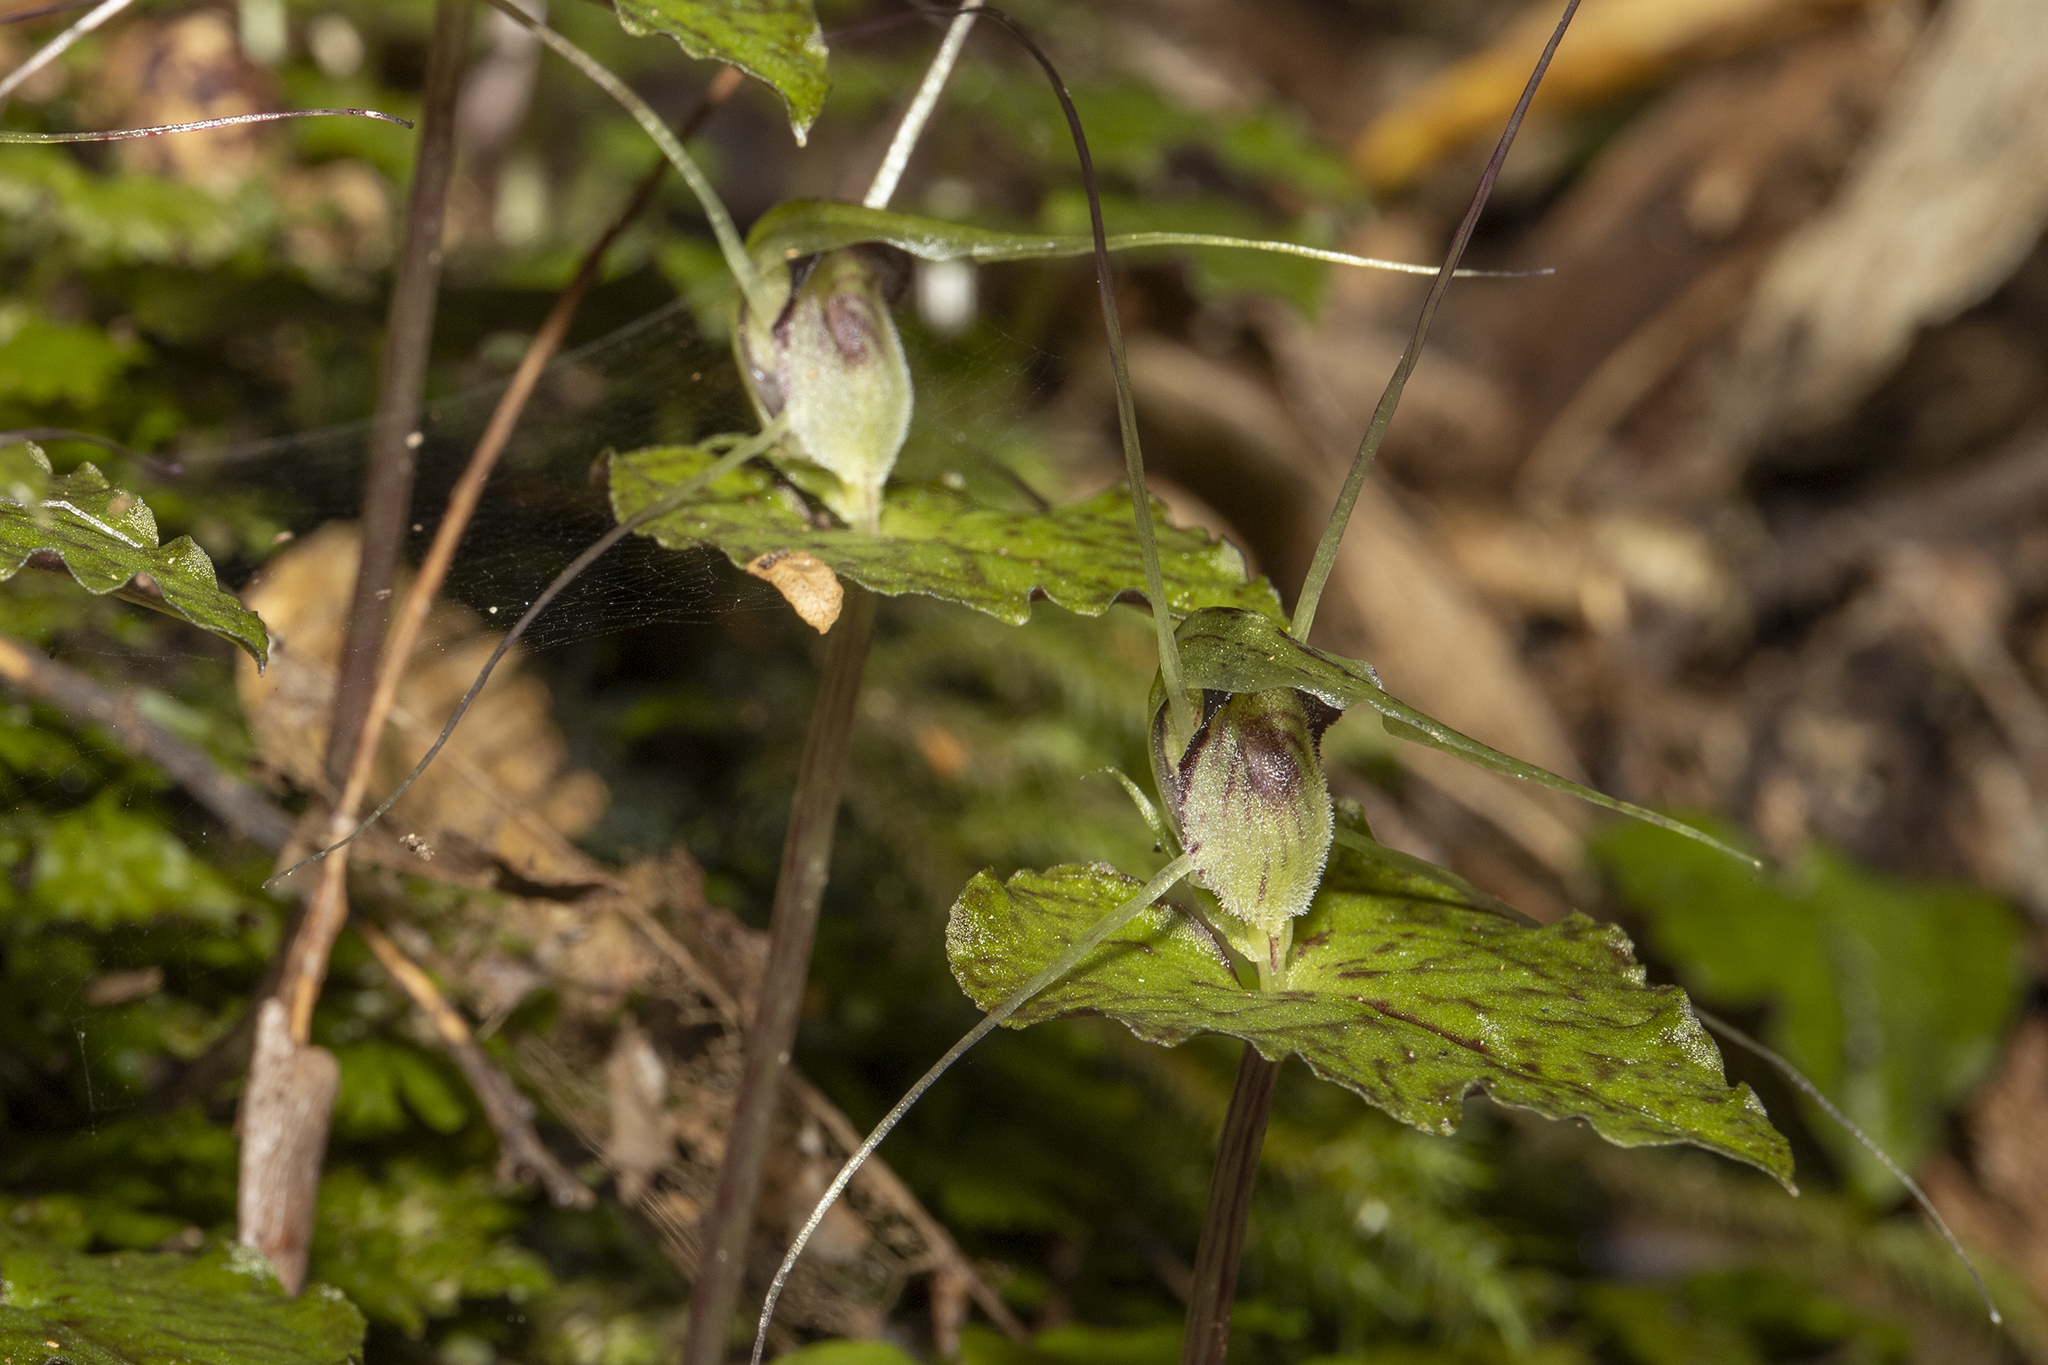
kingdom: Plantae
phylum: Tracheophyta
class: Liliopsida
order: Asparagales
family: Orchidaceae
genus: Corybas
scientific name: Corybas acuminatus
